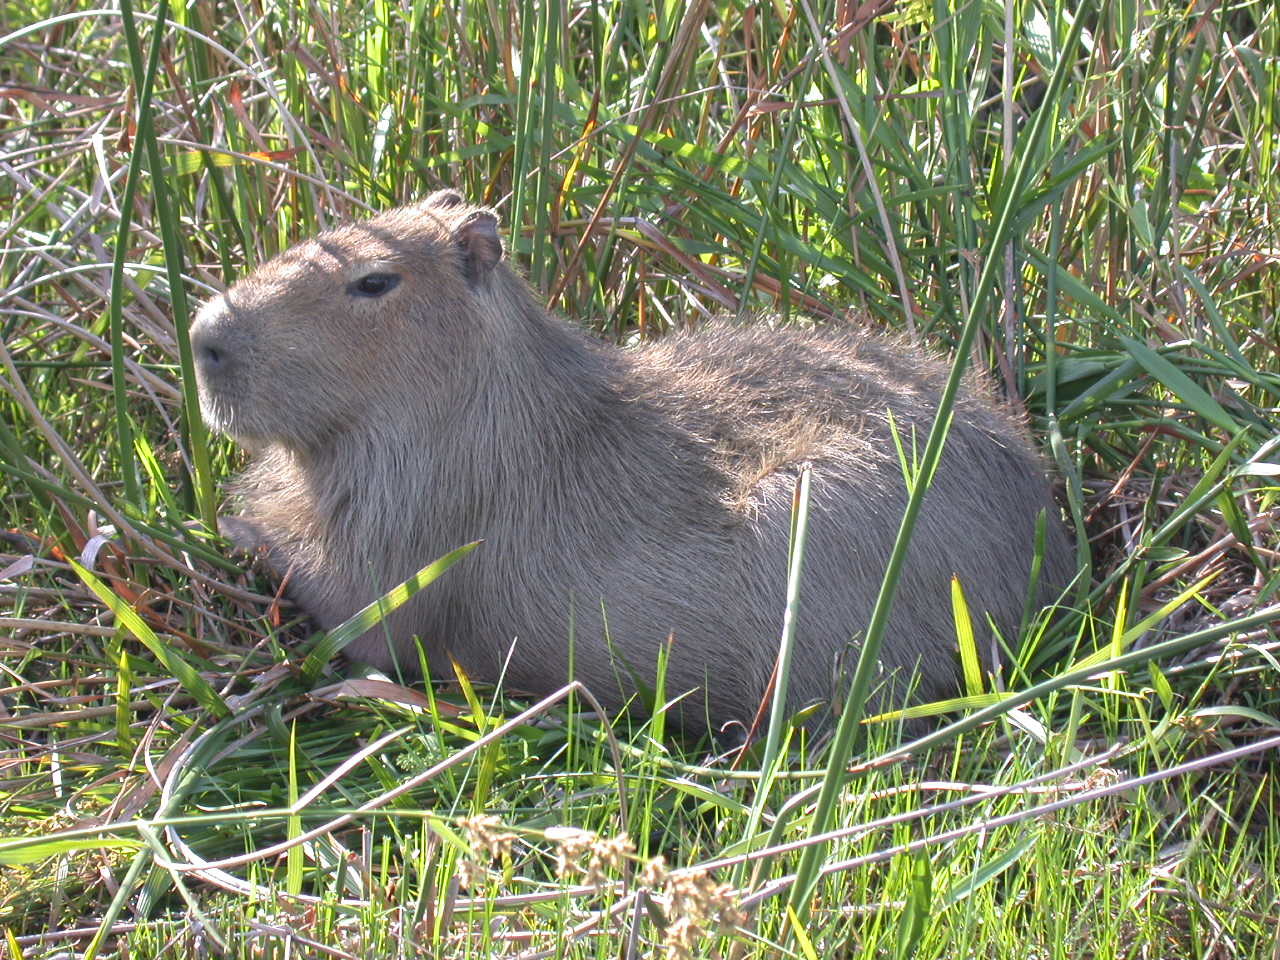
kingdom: Animalia
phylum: Chordata
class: Mammalia
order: Rodentia
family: Caviidae
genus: Hydrochoerus
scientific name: Hydrochoerus hydrochaeris
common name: Capybara
